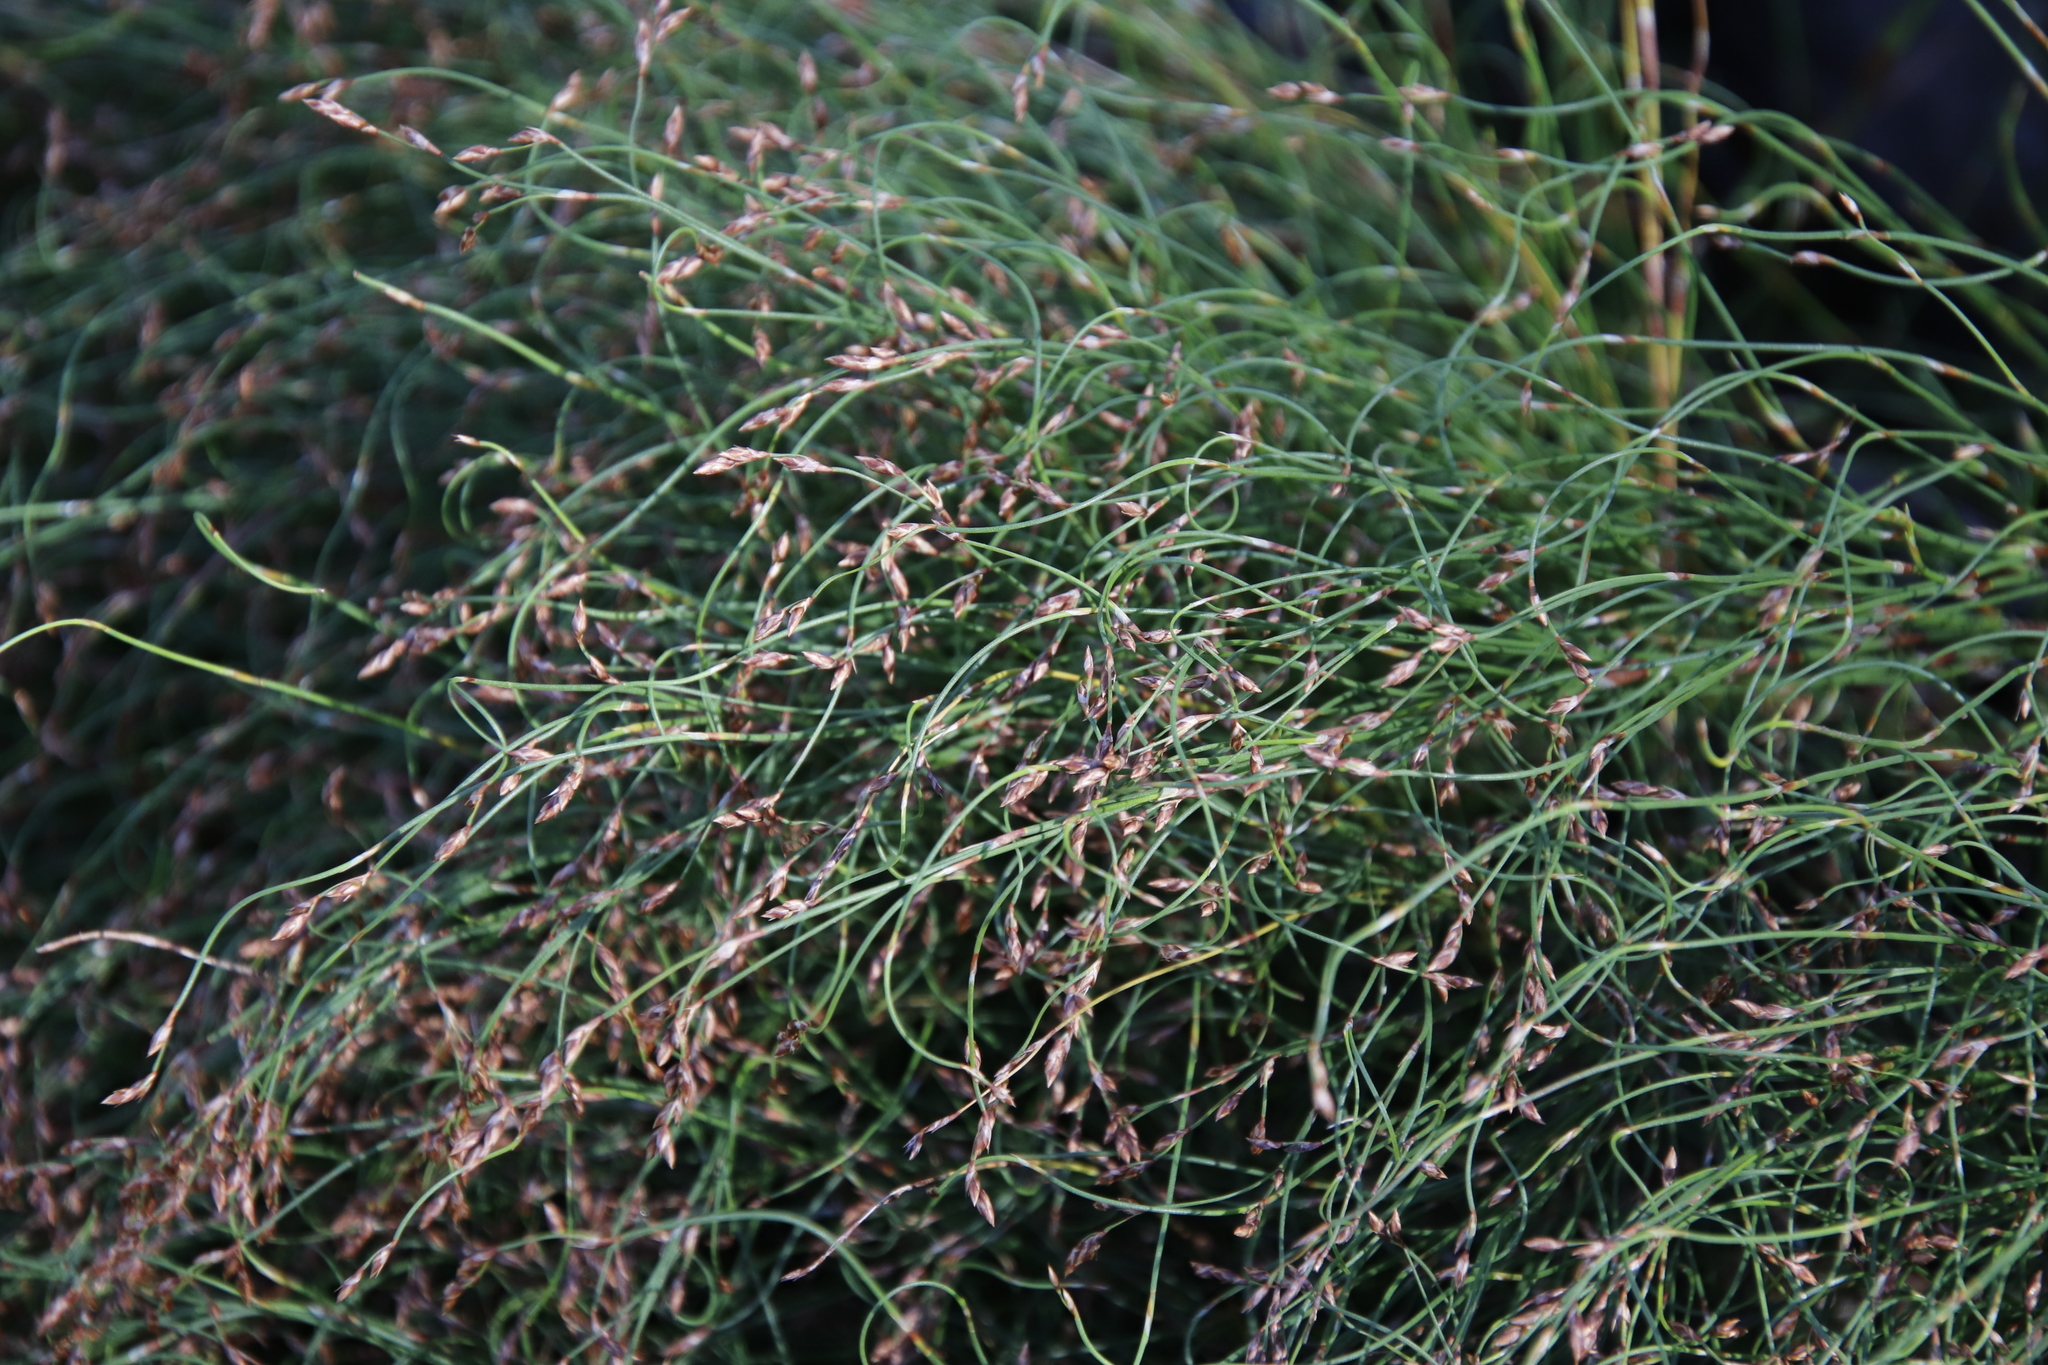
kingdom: Plantae
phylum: Tracheophyta
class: Liliopsida
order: Poales
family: Restionaceae
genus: Restio
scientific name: Restio perplexus
